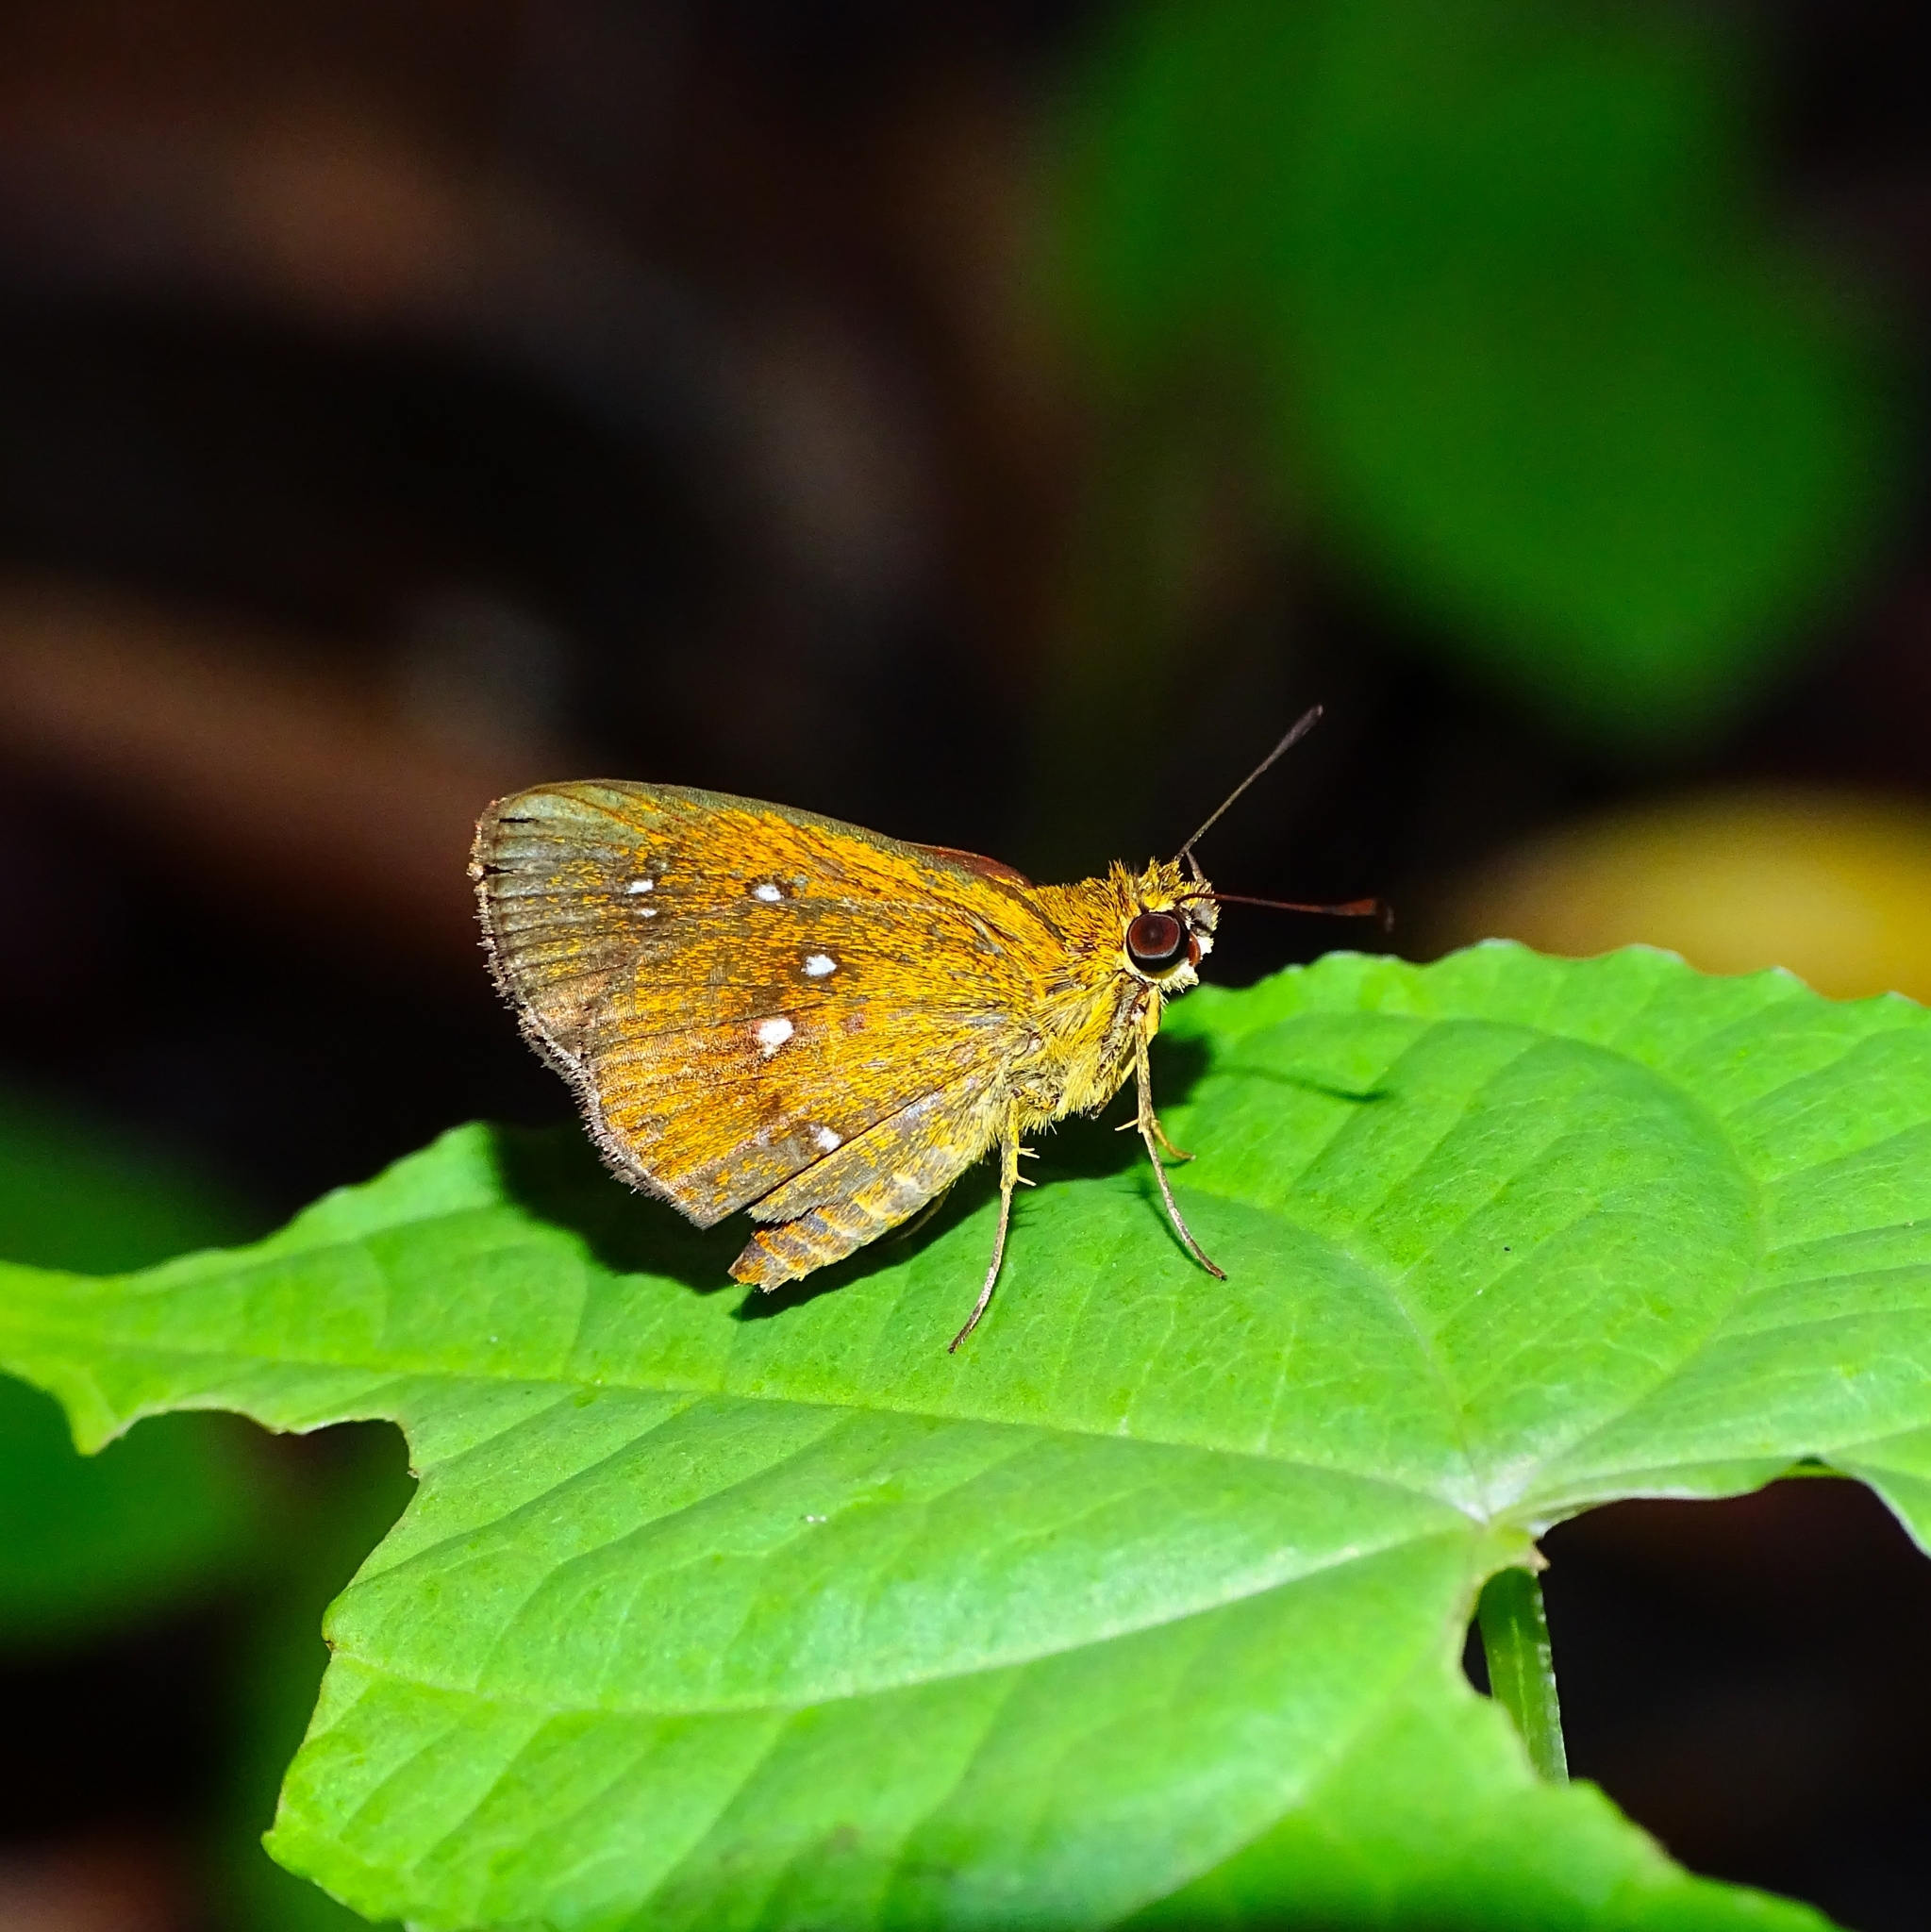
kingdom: Animalia
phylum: Arthropoda
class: Insecta
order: Lepidoptera
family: Hesperiidae
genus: Iambrix
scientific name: Iambrix salsala
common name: Chestnut bob
